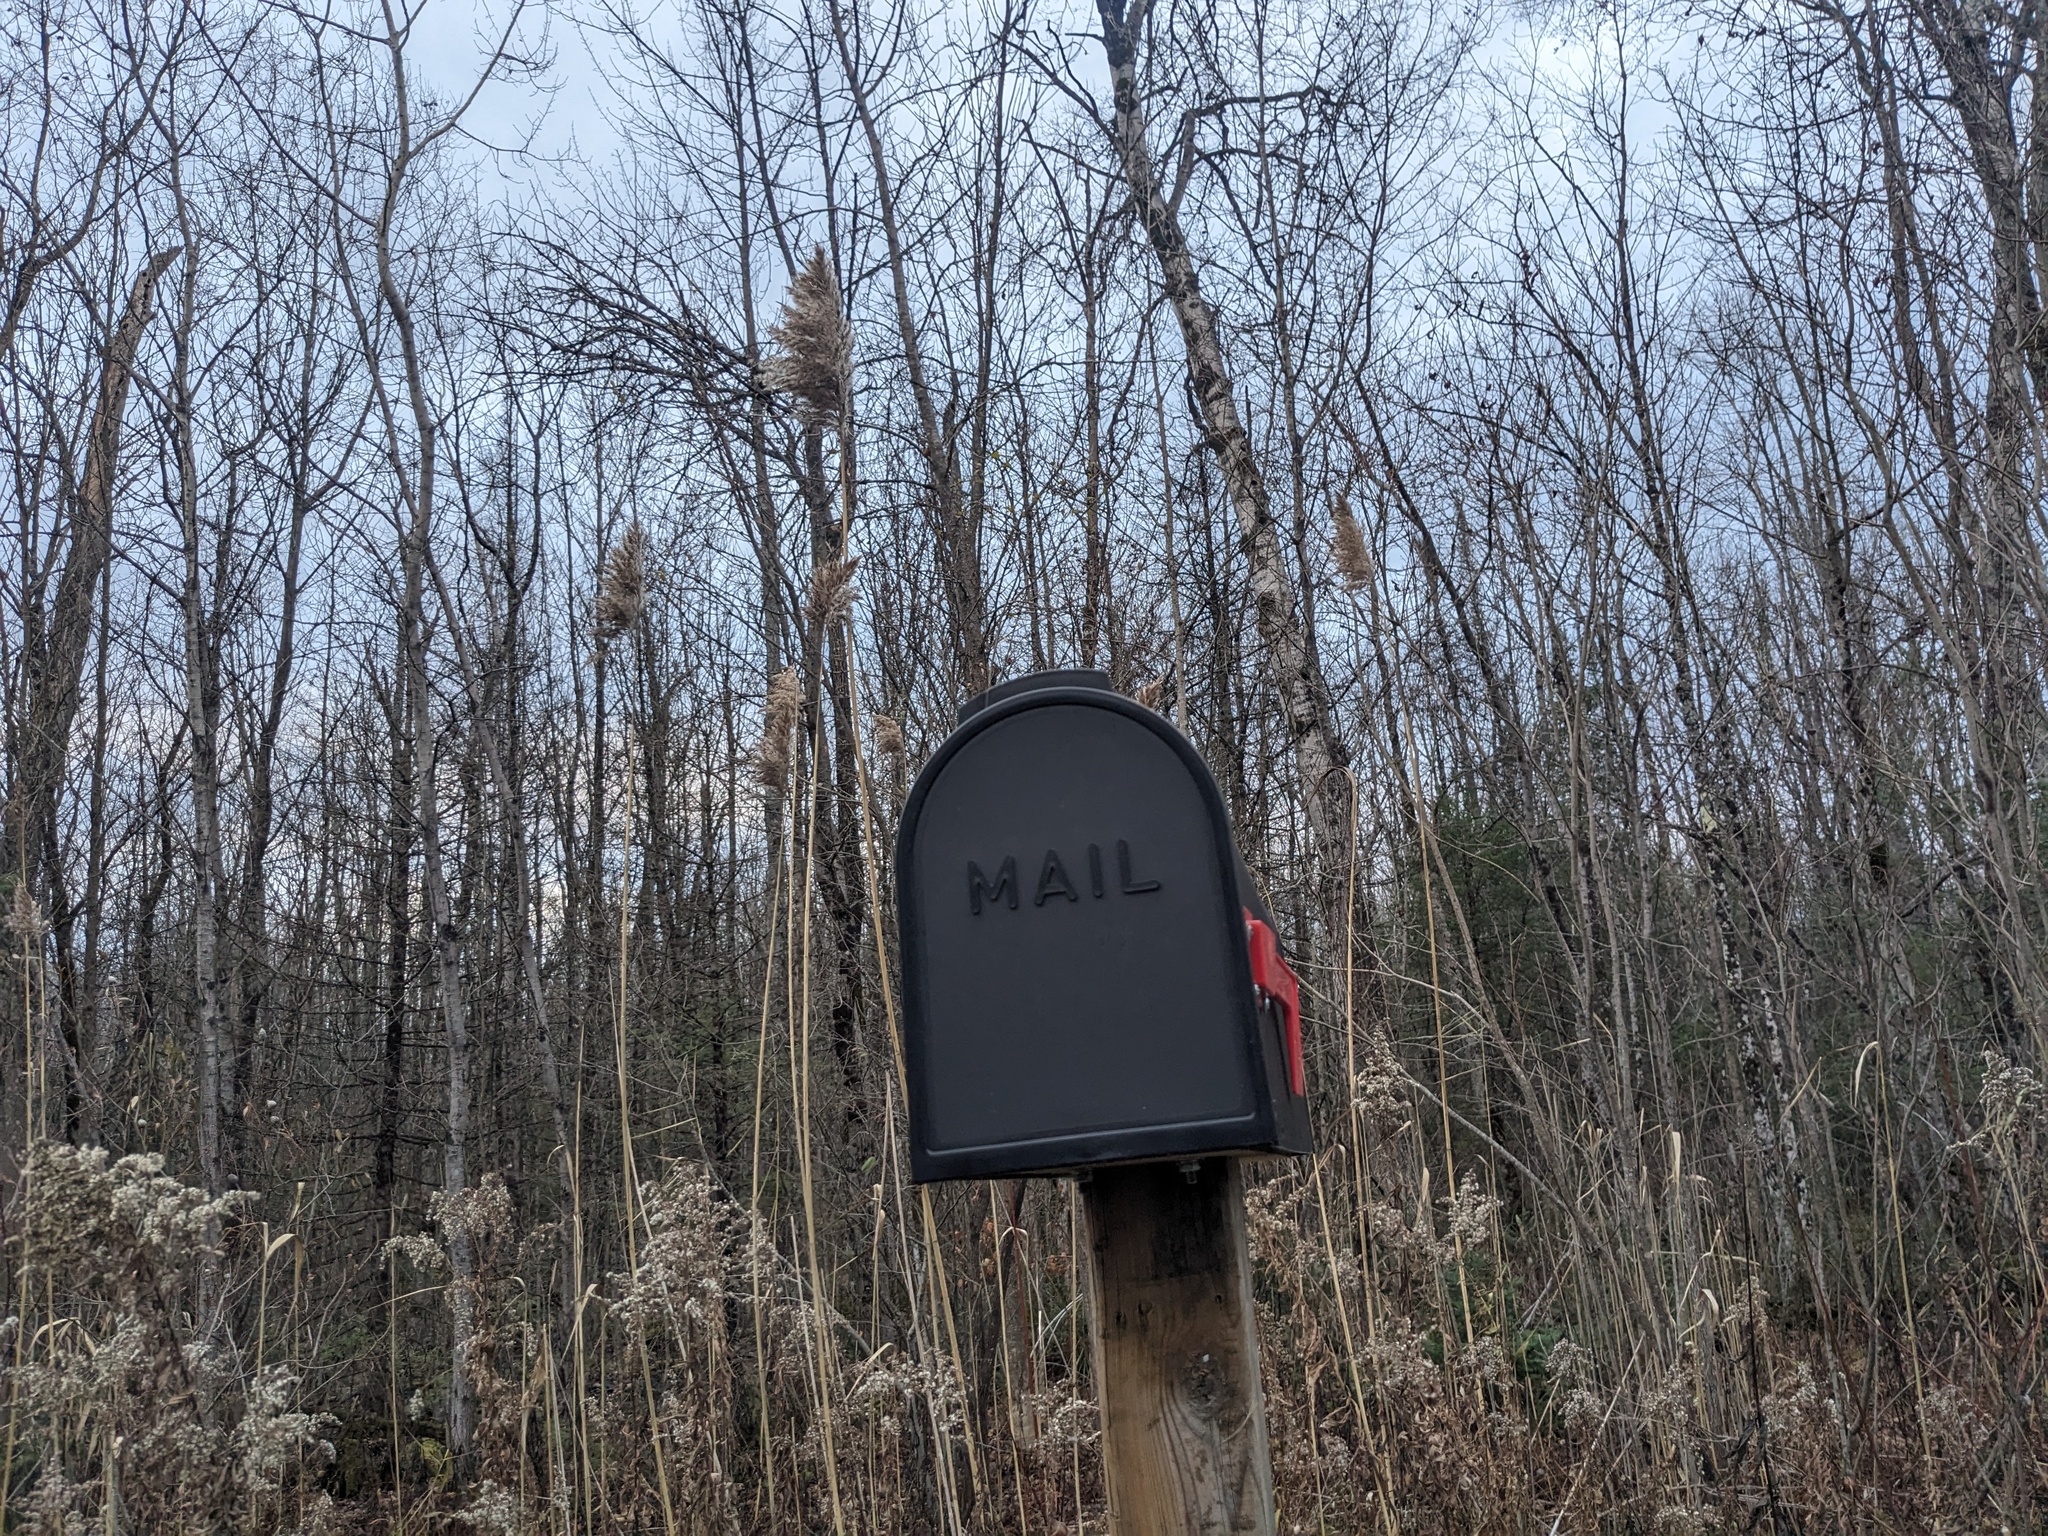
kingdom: Plantae
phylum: Tracheophyta
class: Liliopsida
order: Poales
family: Poaceae
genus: Phragmites
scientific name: Phragmites australis
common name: Common reed
